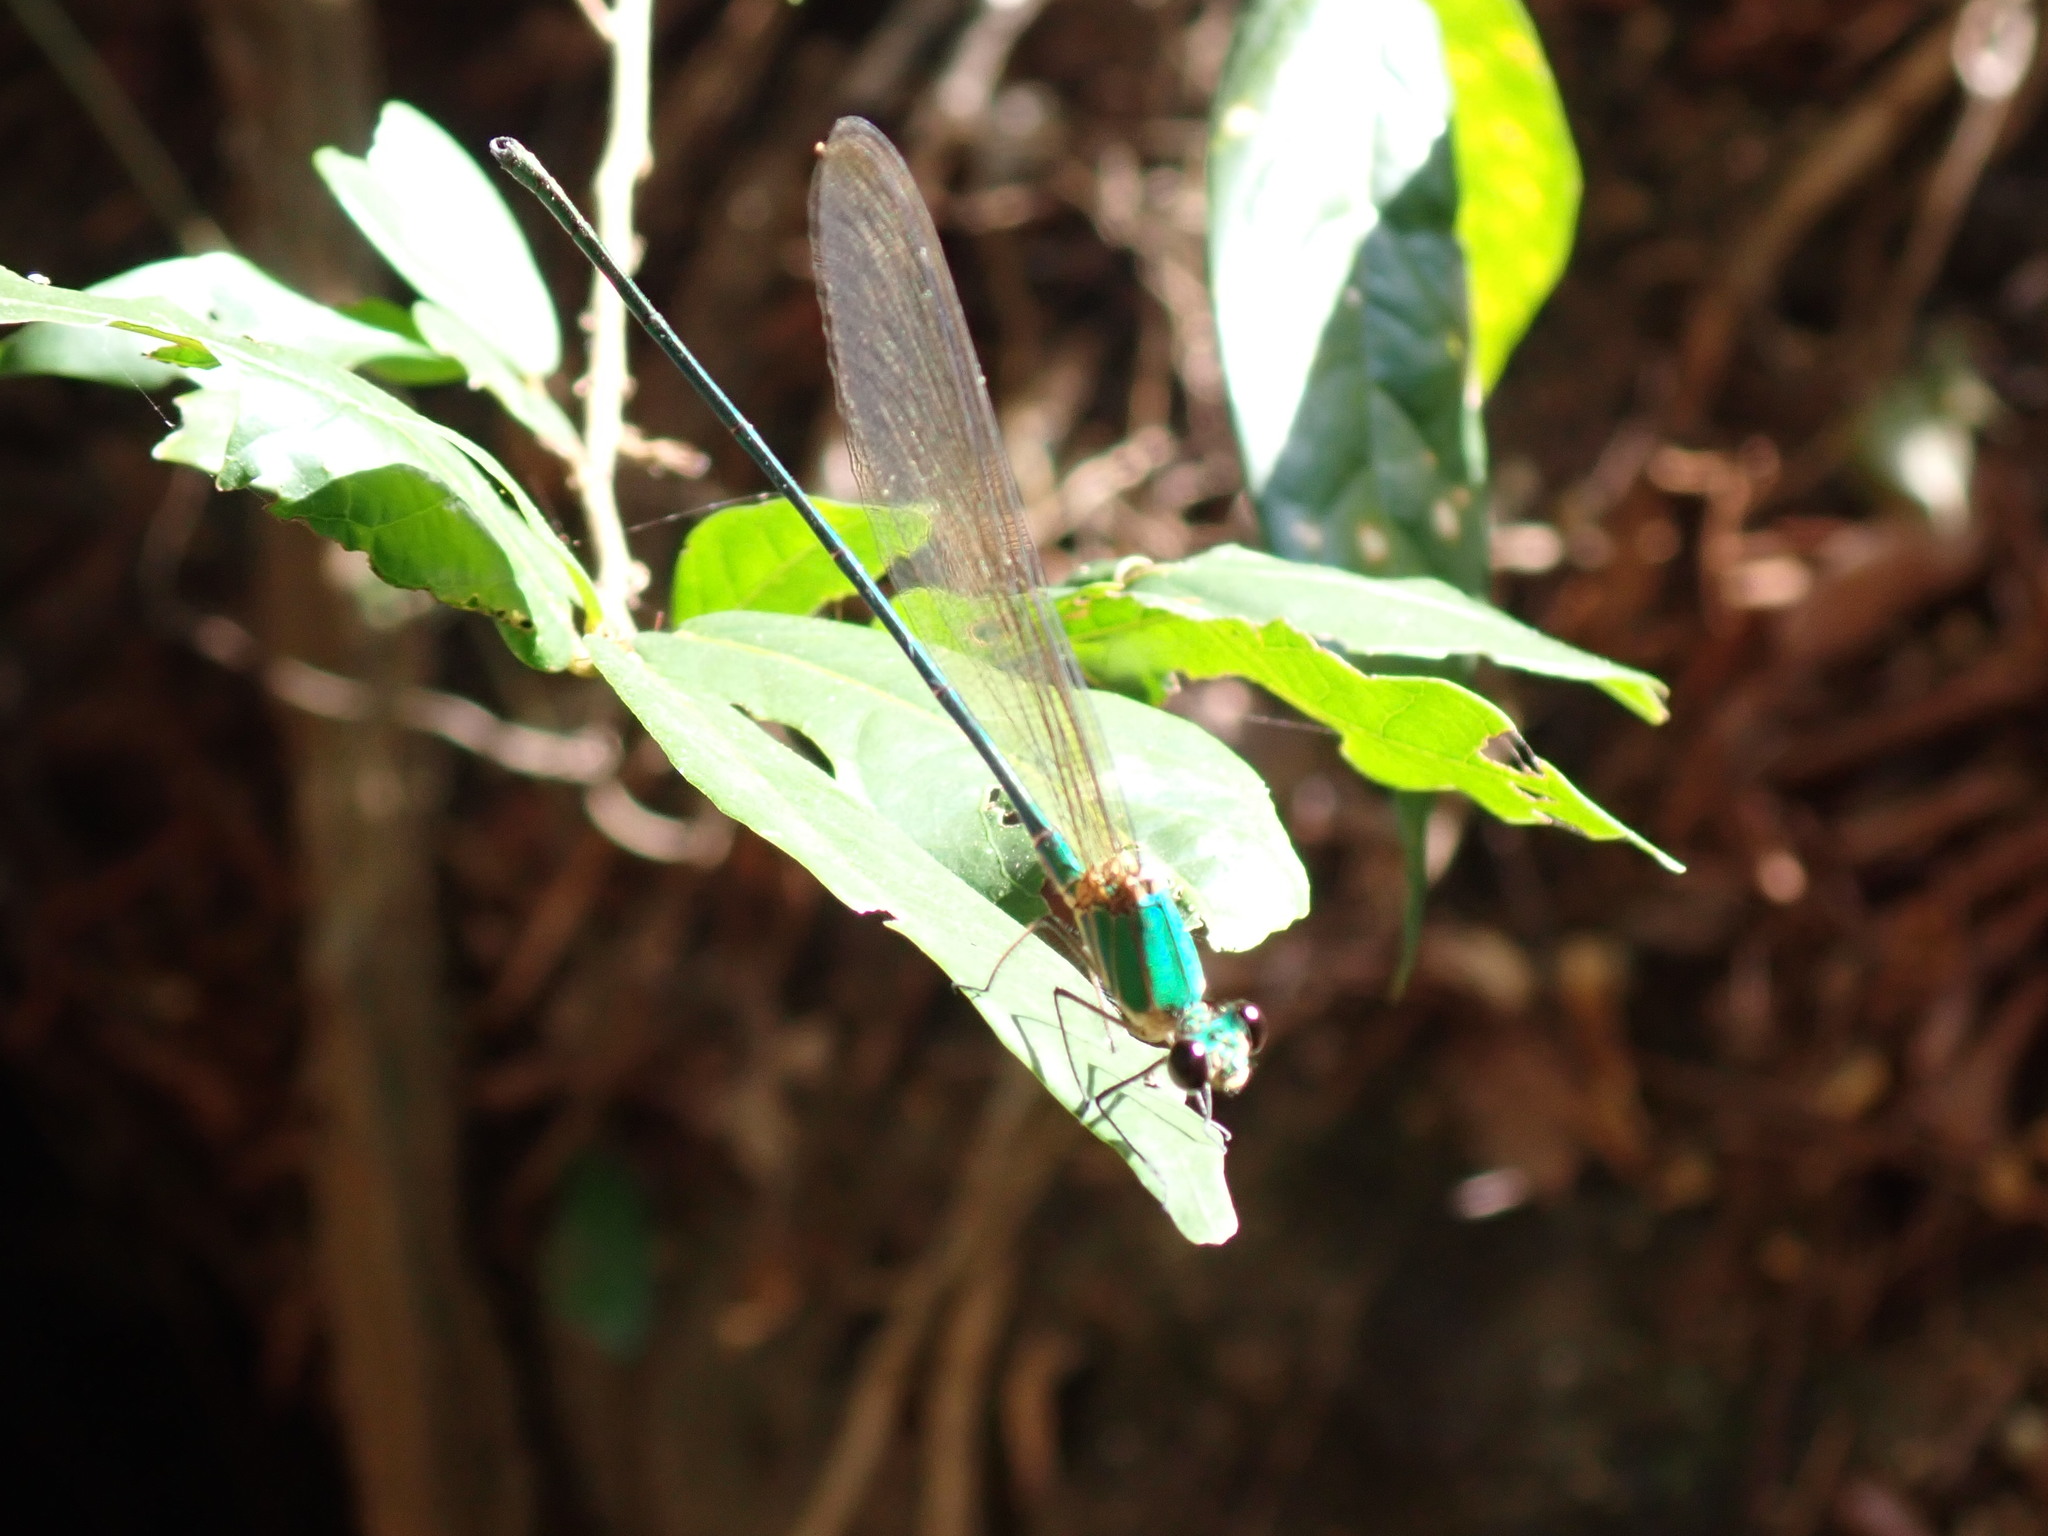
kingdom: Animalia
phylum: Arthropoda
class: Insecta
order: Odonata
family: Calopterygidae
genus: Vestalis
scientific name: Vestalis gracilis
